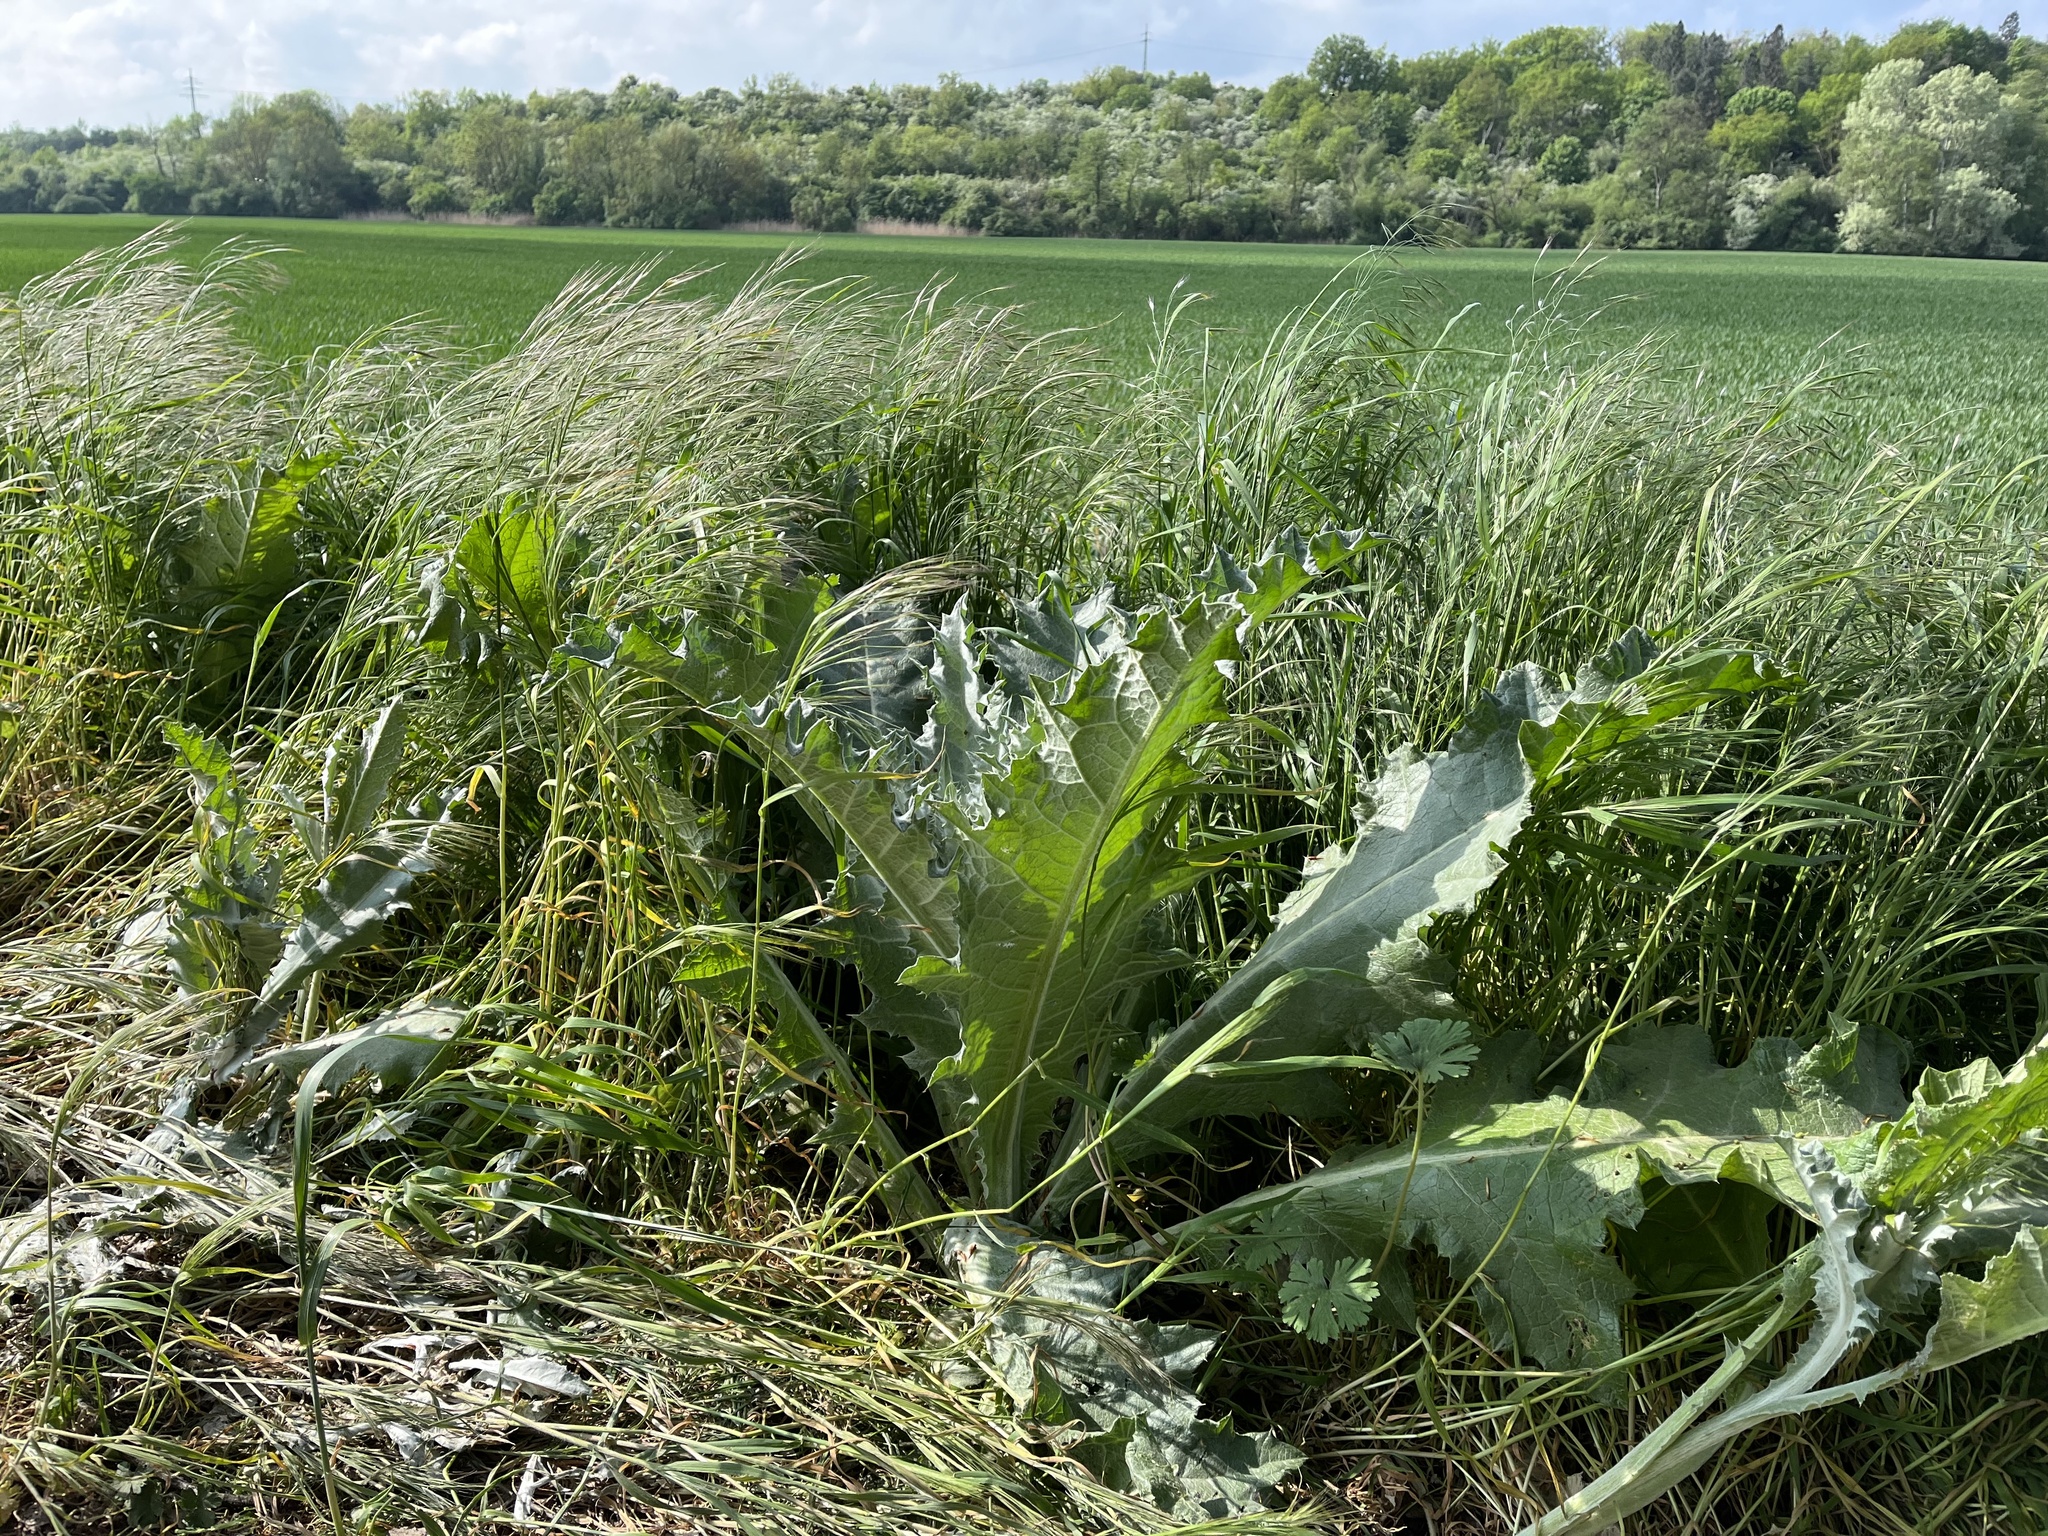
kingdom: Plantae
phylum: Tracheophyta
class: Magnoliopsida
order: Asterales
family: Asteraceae
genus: Onopordum
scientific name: Onopordum acanthium
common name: Scotch thistle
